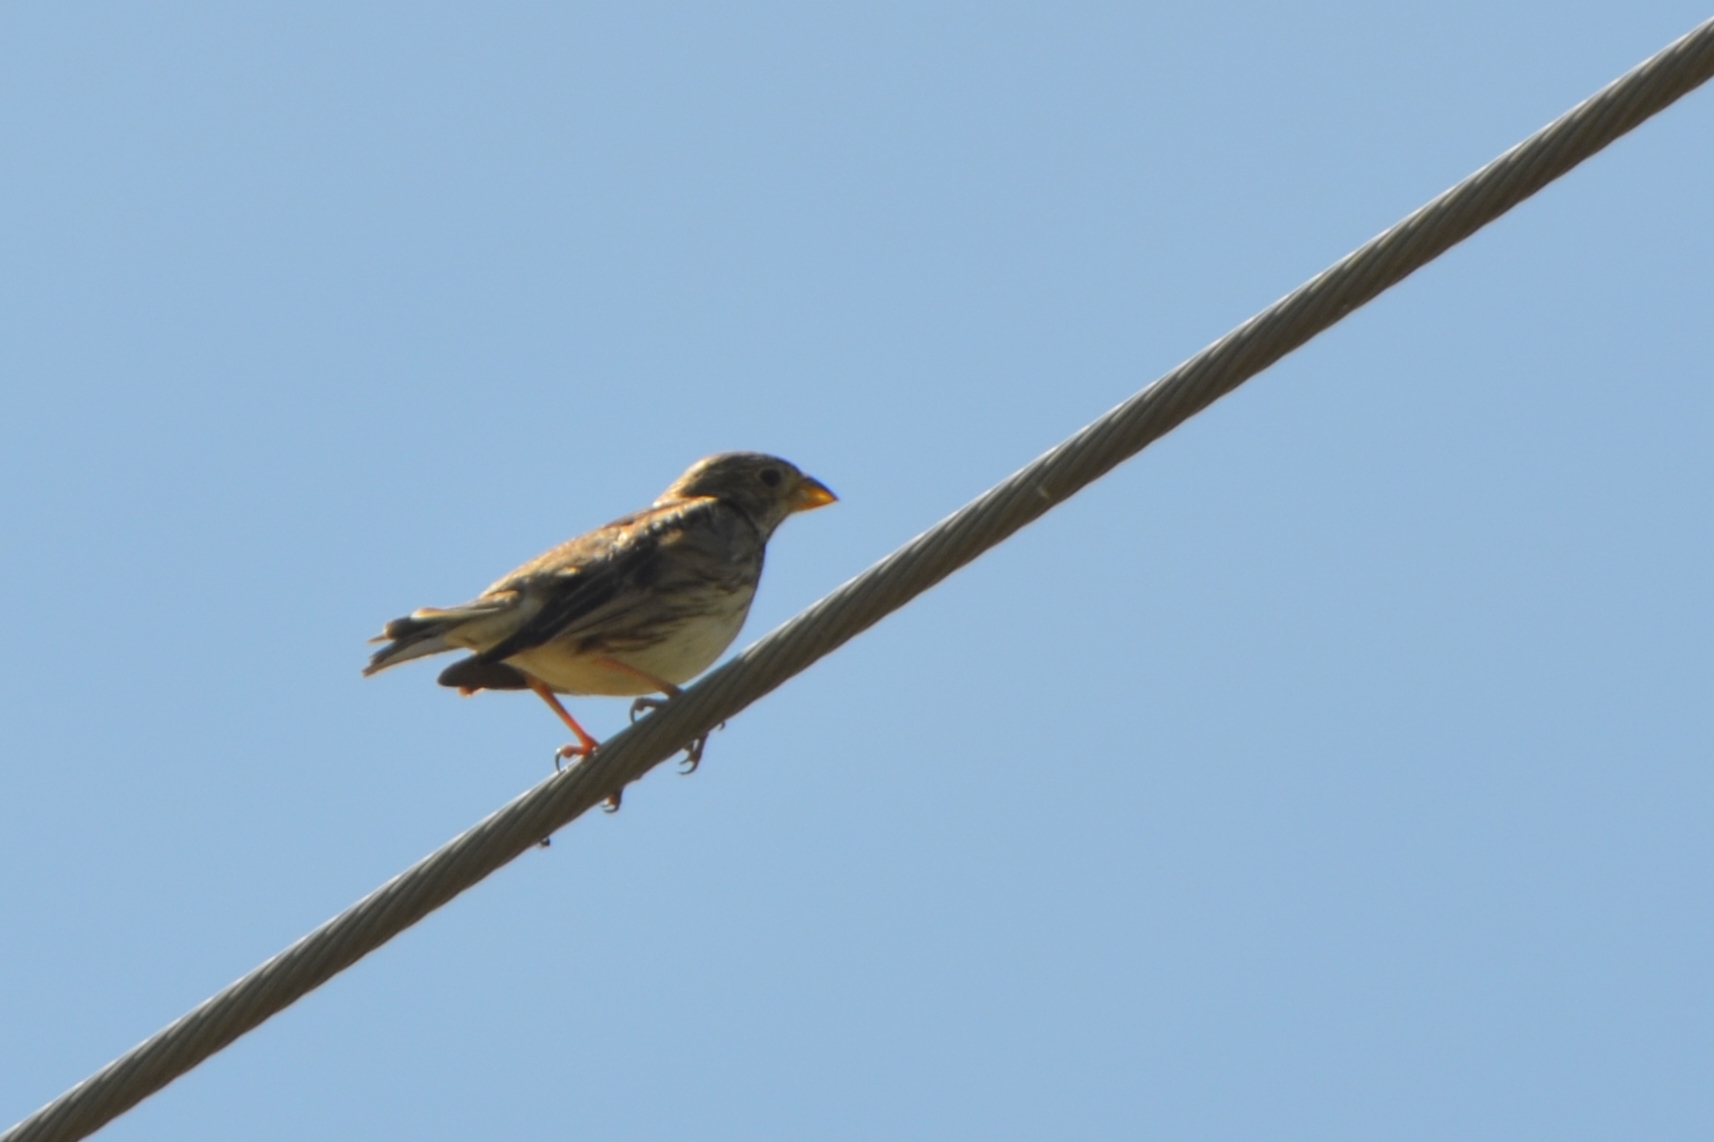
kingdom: Animalia
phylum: Chordata
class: Aves
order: Passeriformes
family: Emberizidae
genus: Emberiza
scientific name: Emberiza calandra
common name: Corn bunting
